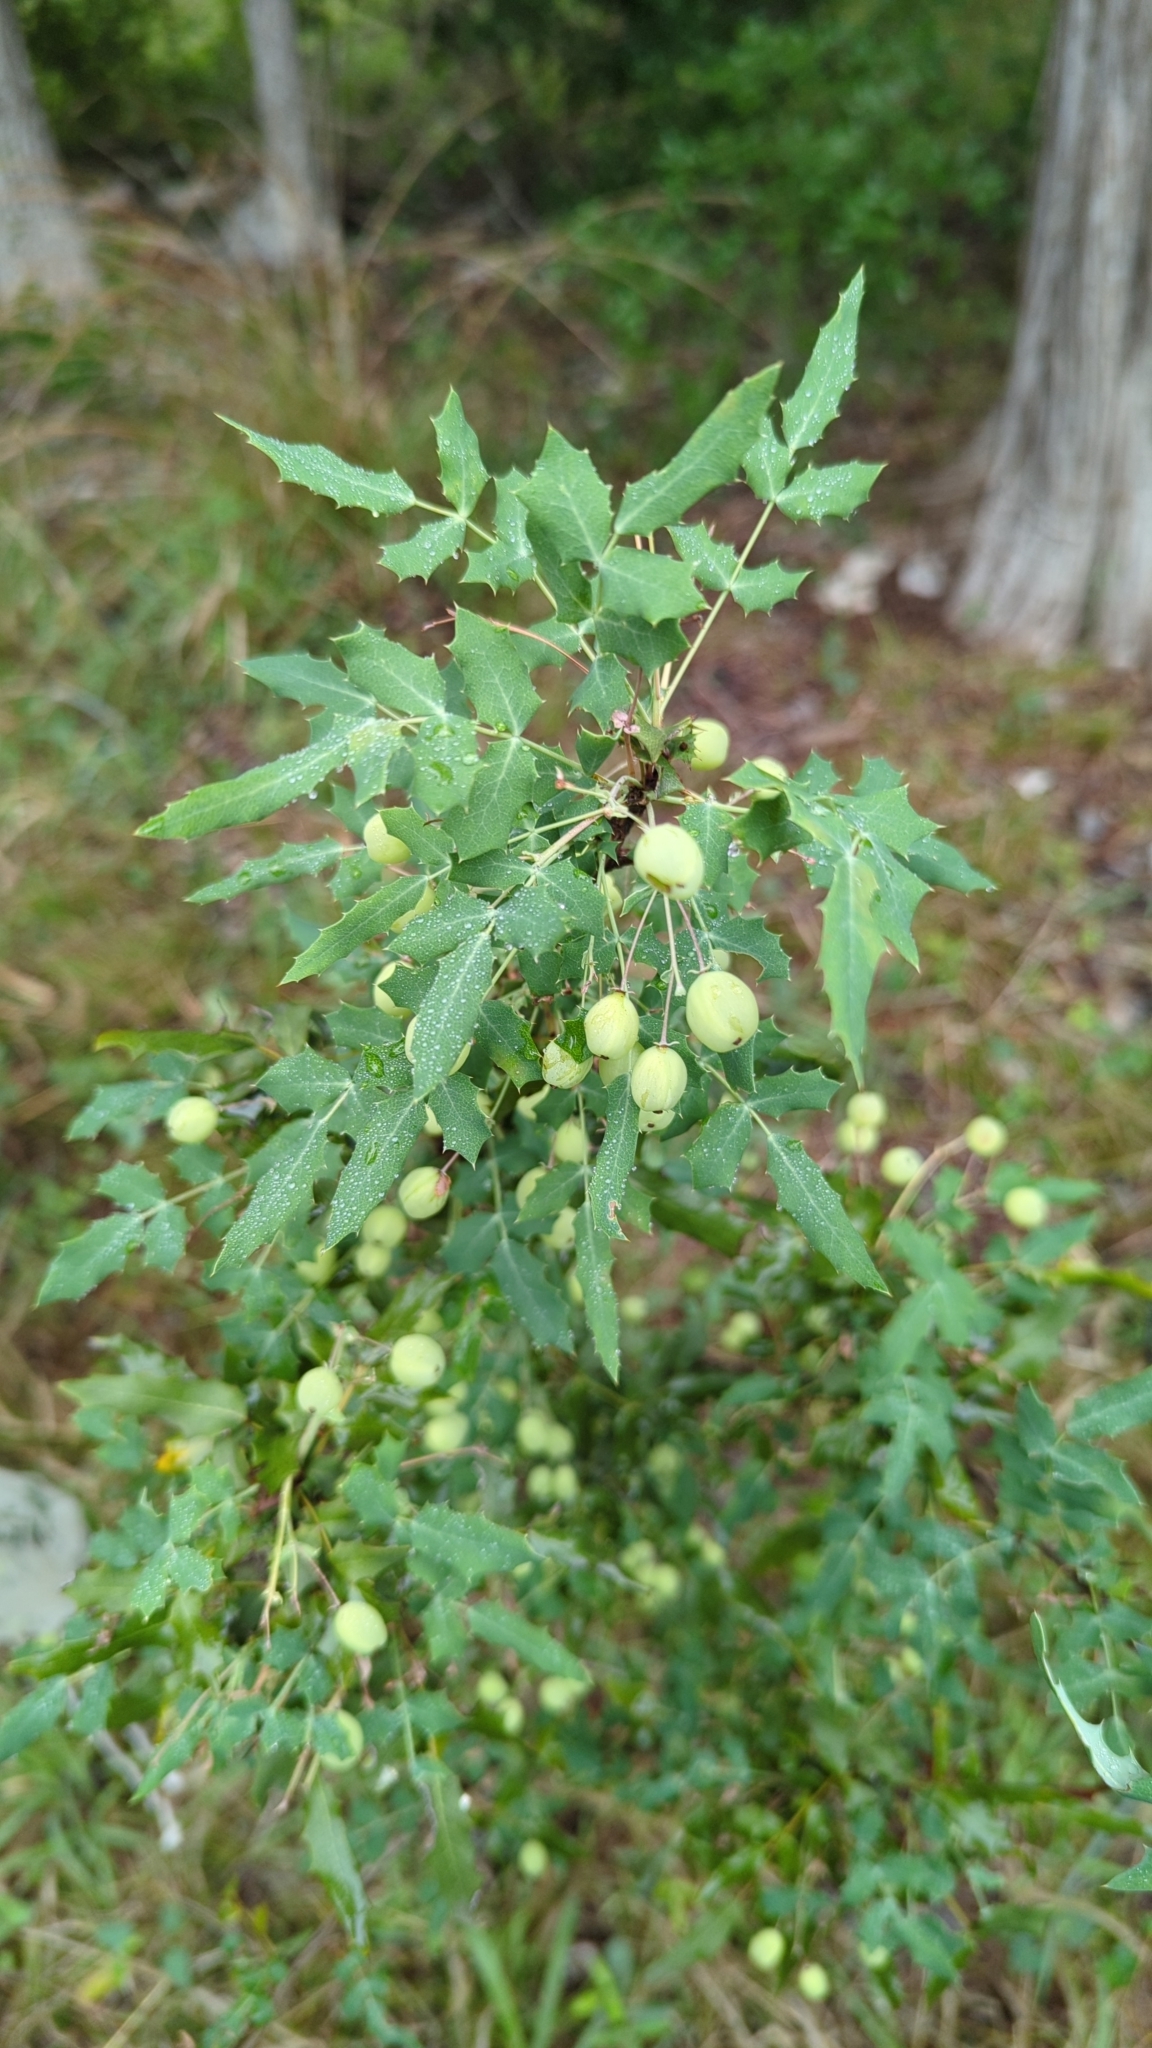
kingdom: Plantae
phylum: Tracheophyta
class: Magnoliopsida
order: Ranunculales
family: Berberidaceae
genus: Berberis
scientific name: Berberis swaseyi
